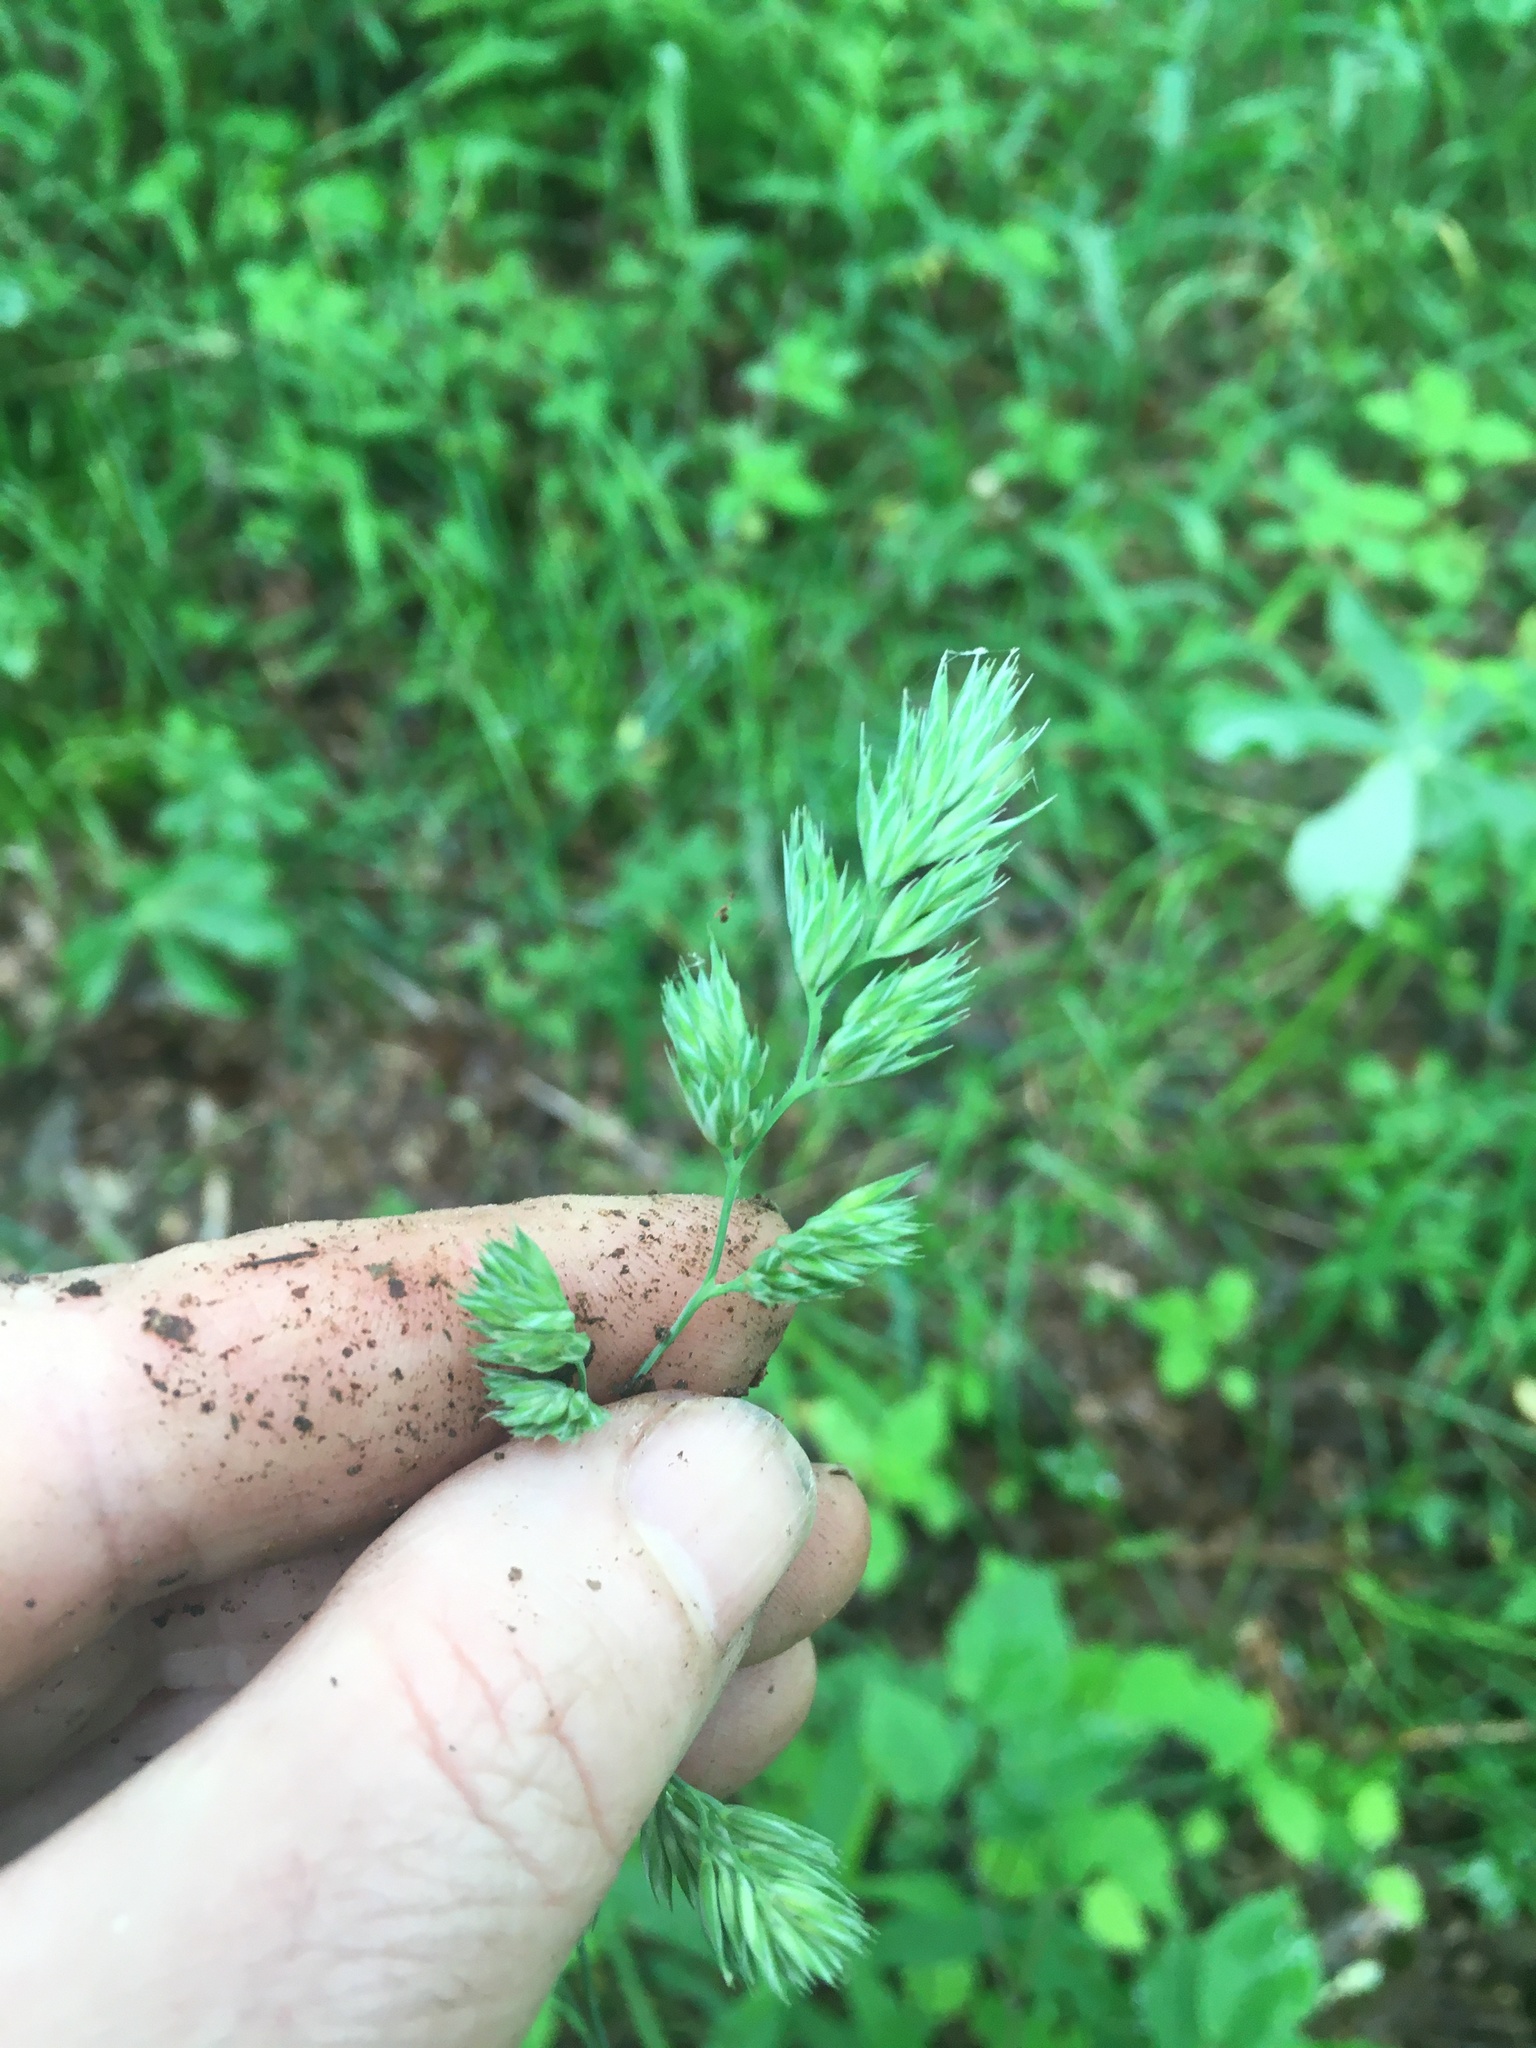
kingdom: Plantae
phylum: Tracheophyta
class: Liliopsida
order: Poales
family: Poaceae
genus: Dactylis
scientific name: Dactylis glomerata
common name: Orchardgrass
